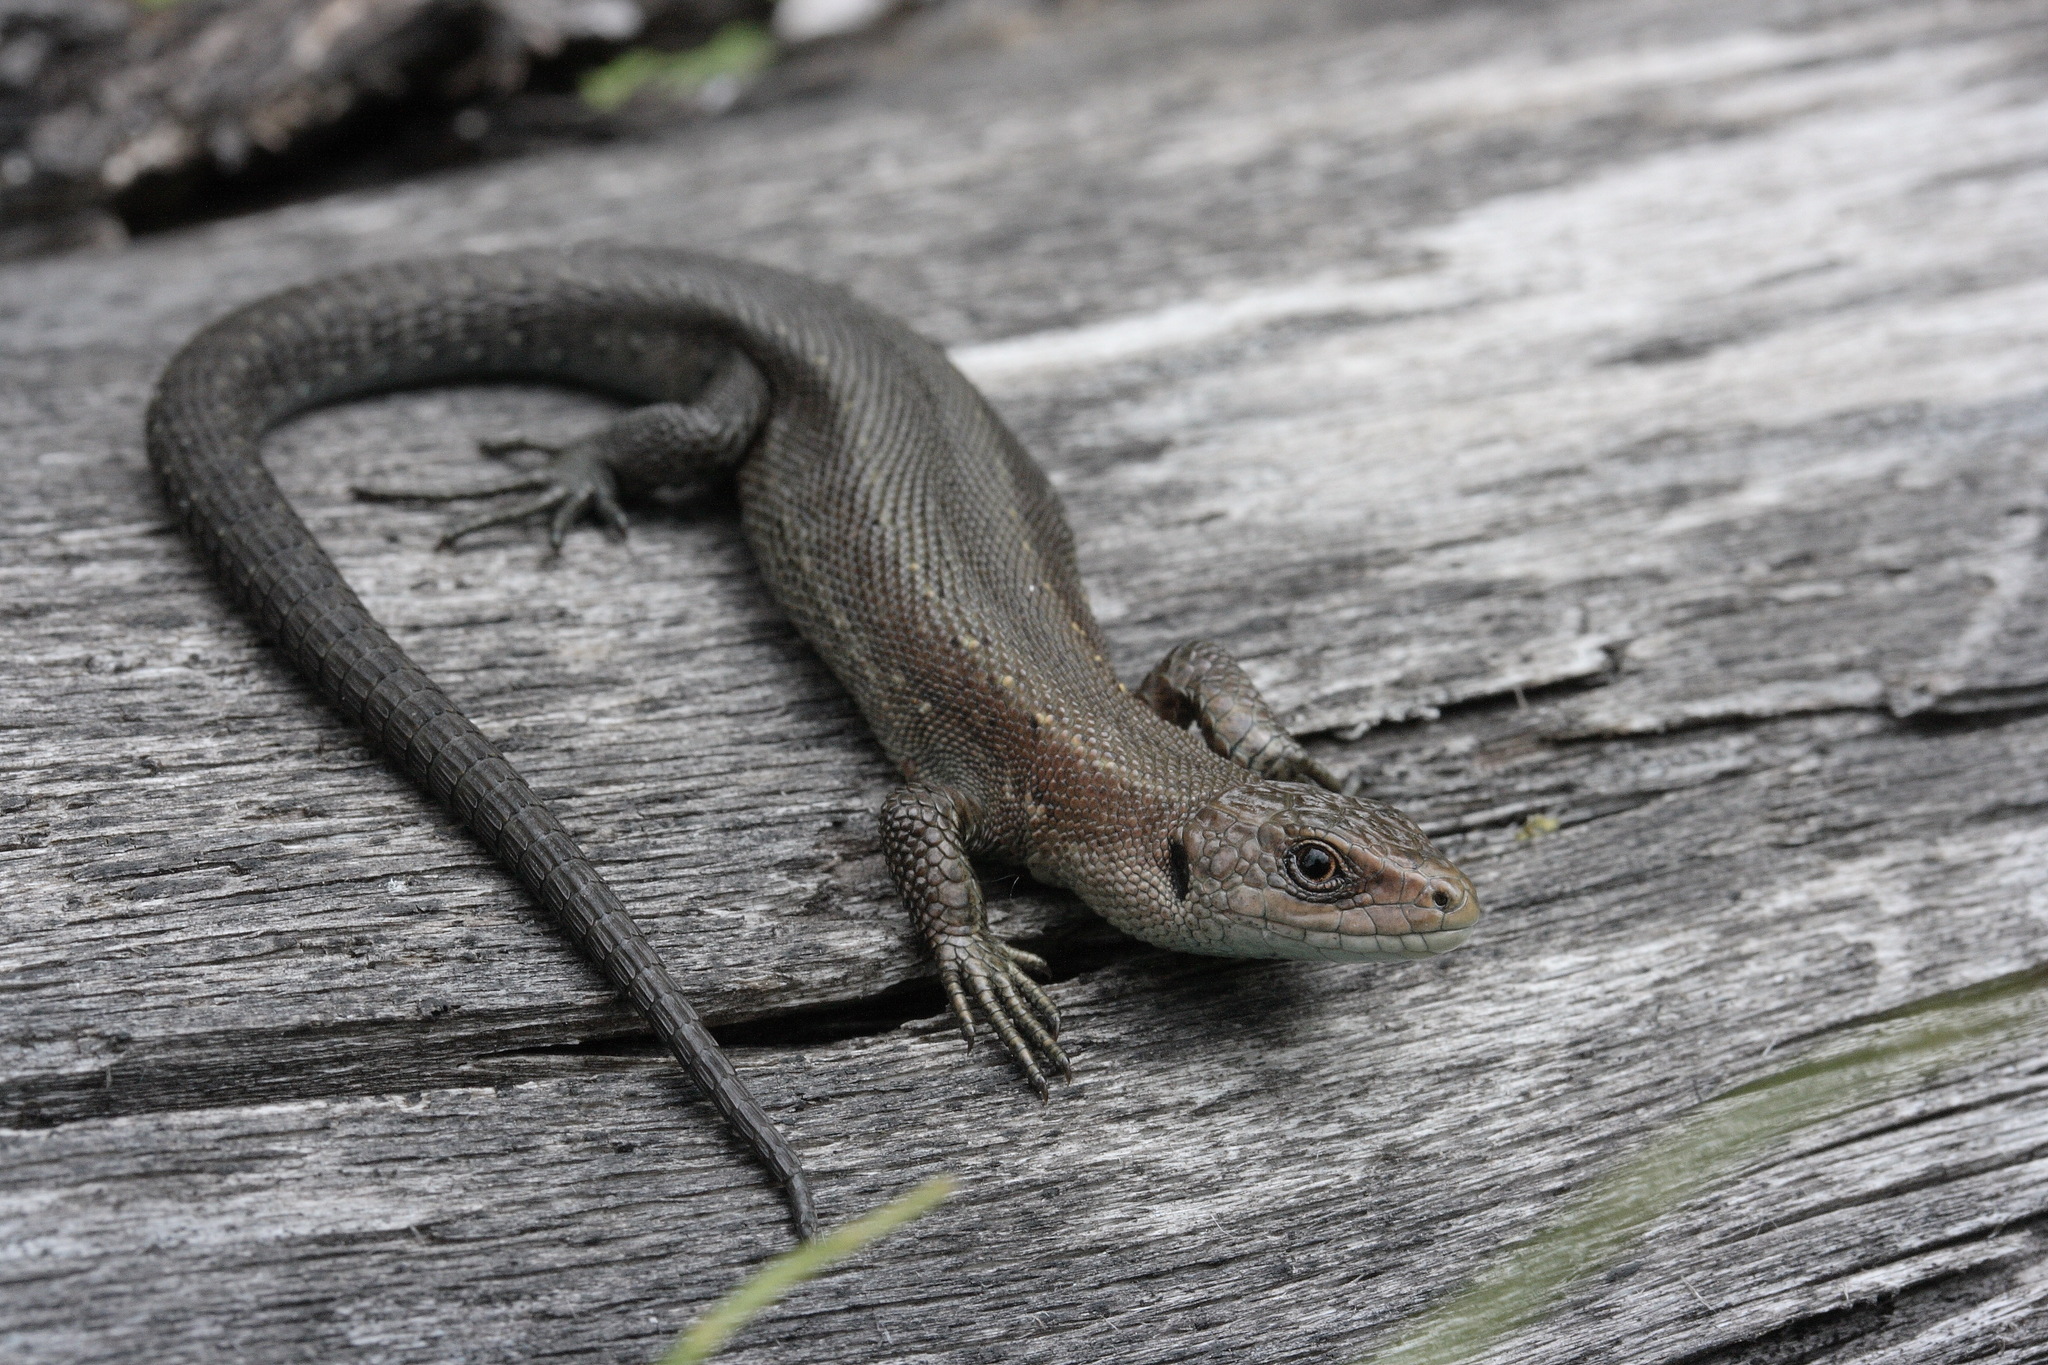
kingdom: Animalia
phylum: Chordata
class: Squamata
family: Lacertidae
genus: Zootoca
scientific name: Zootoca vivipara
